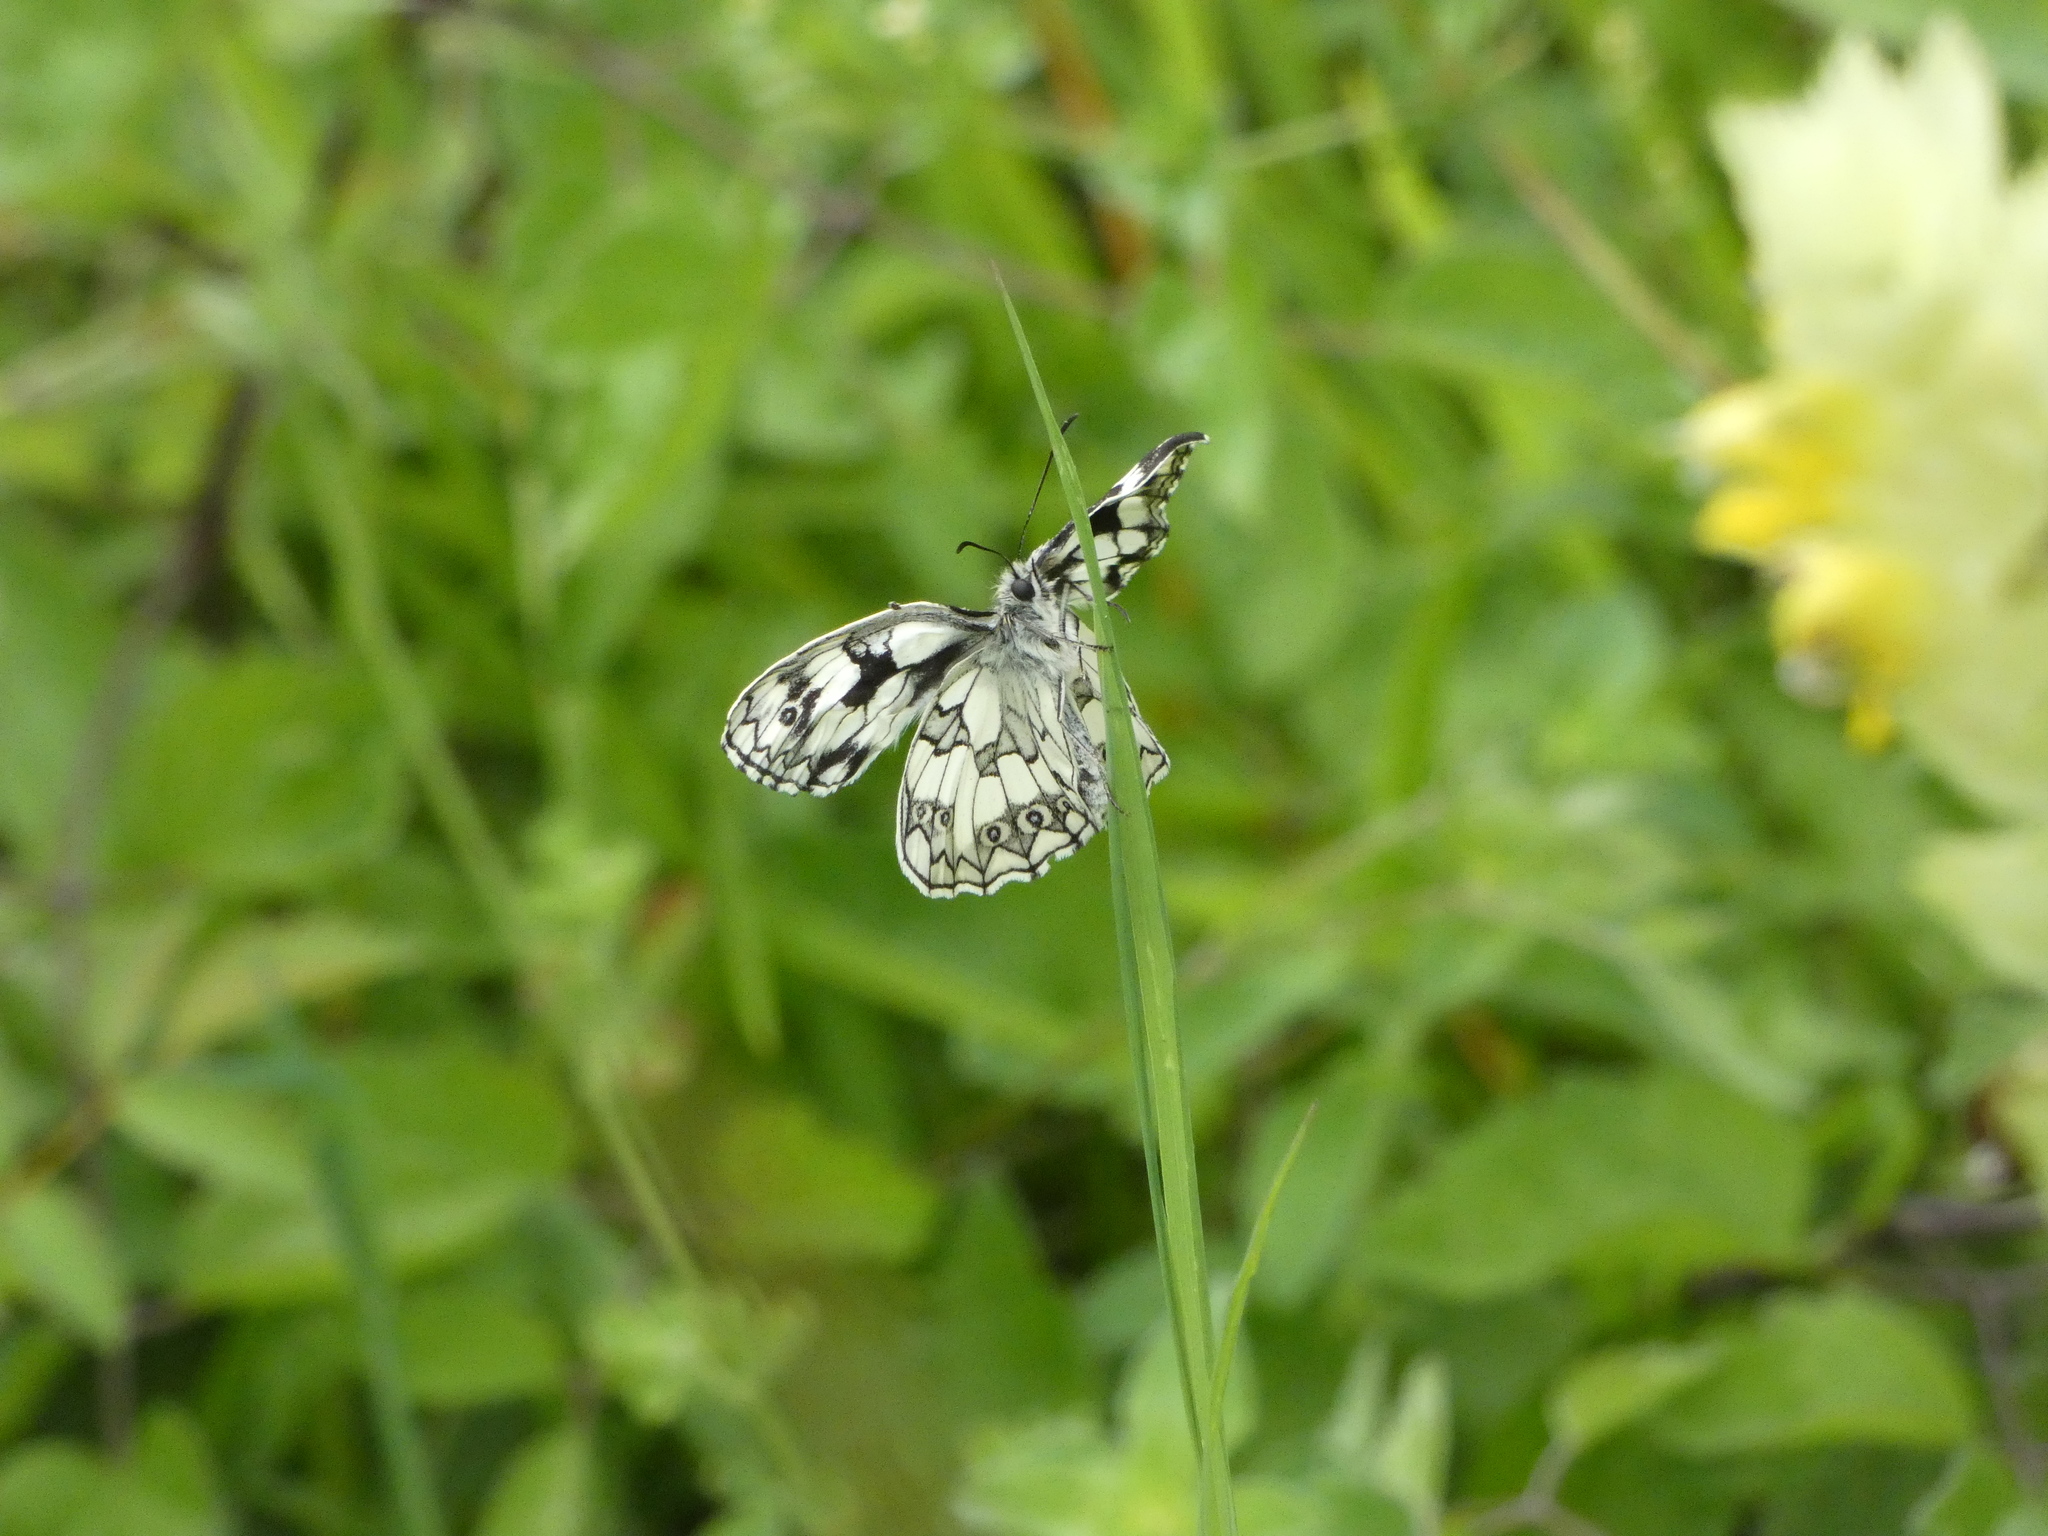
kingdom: Animalia
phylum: Arthropoda
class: Insecta
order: Lepidoptera
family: Nymphalidae
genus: Melanargia
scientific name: Melanargia galathea
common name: Marbled white
